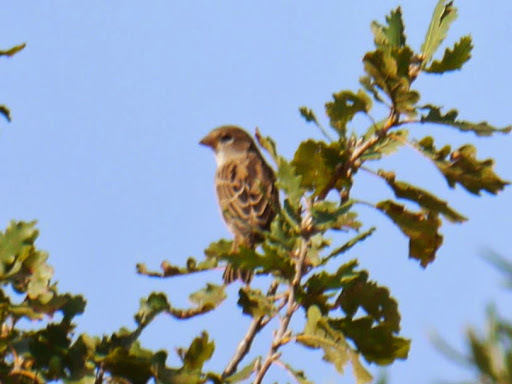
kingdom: Animalia
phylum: Chordata
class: Aves
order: Passeriformes
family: Passeridae
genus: Passer
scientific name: Passer italiae
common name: Italian sparrow
